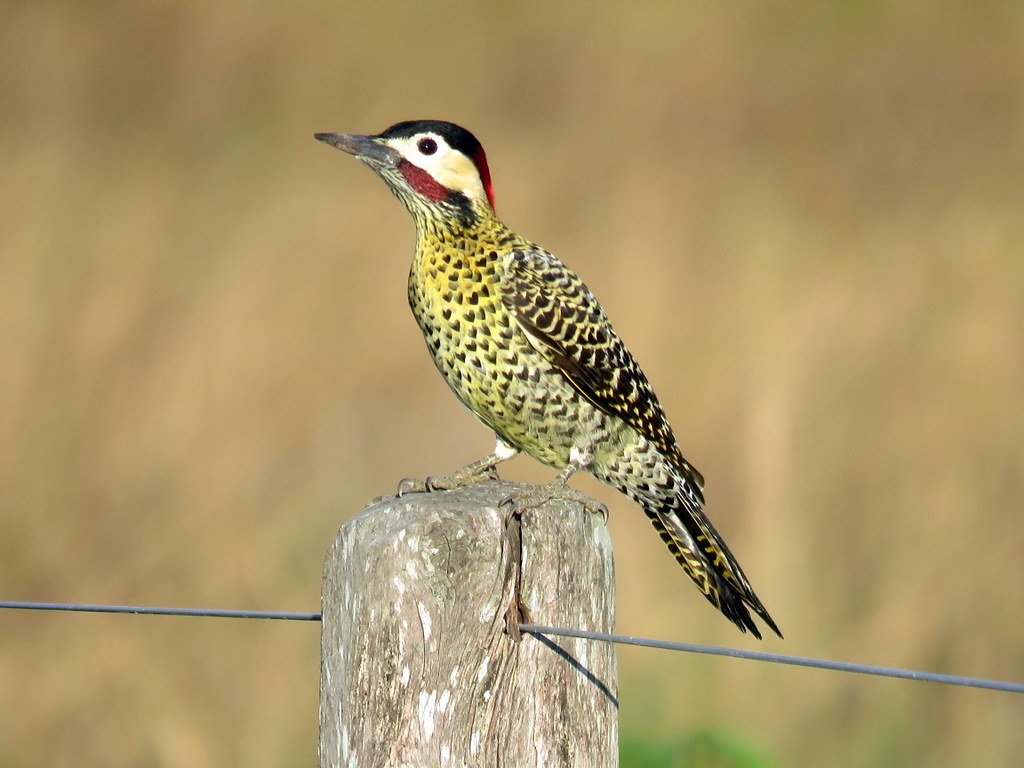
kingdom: Animalia
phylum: Chordata
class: Aves
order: Piciformes
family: Picidae
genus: Colaptes
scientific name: Colaptes melanochloros
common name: Green-barred woodpecker
